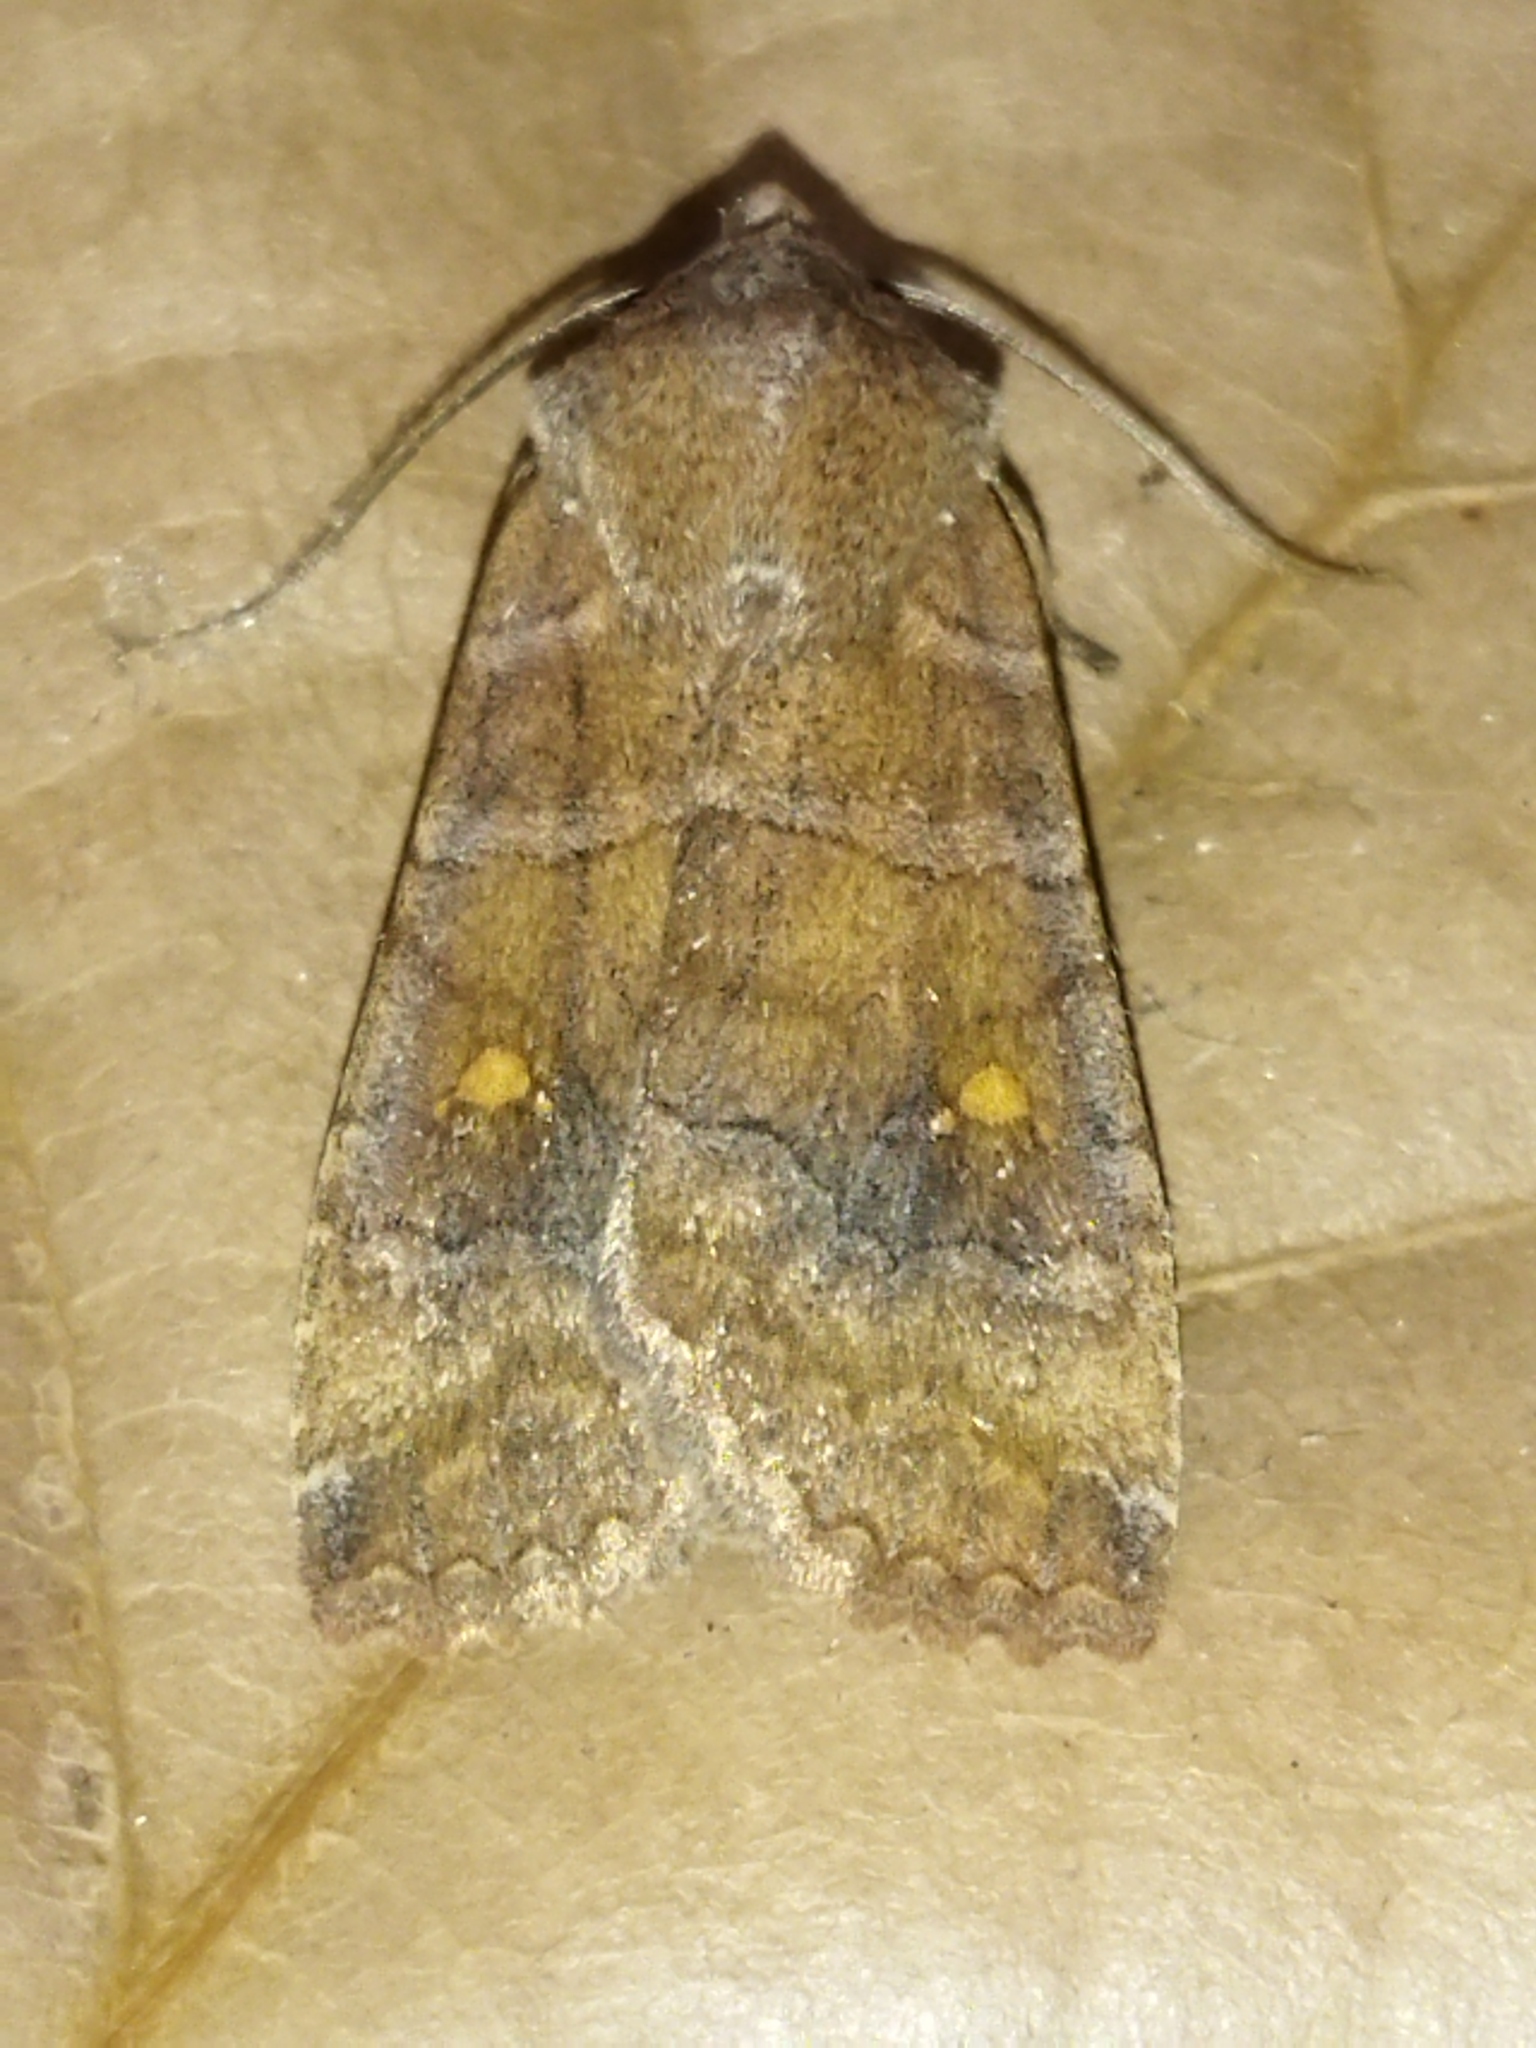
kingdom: Animalia
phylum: Arthropoda
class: Insecta
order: Lepidoptera
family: Noctuidae
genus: Eupsilia
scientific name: Eupsilia transversa
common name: Satellite
